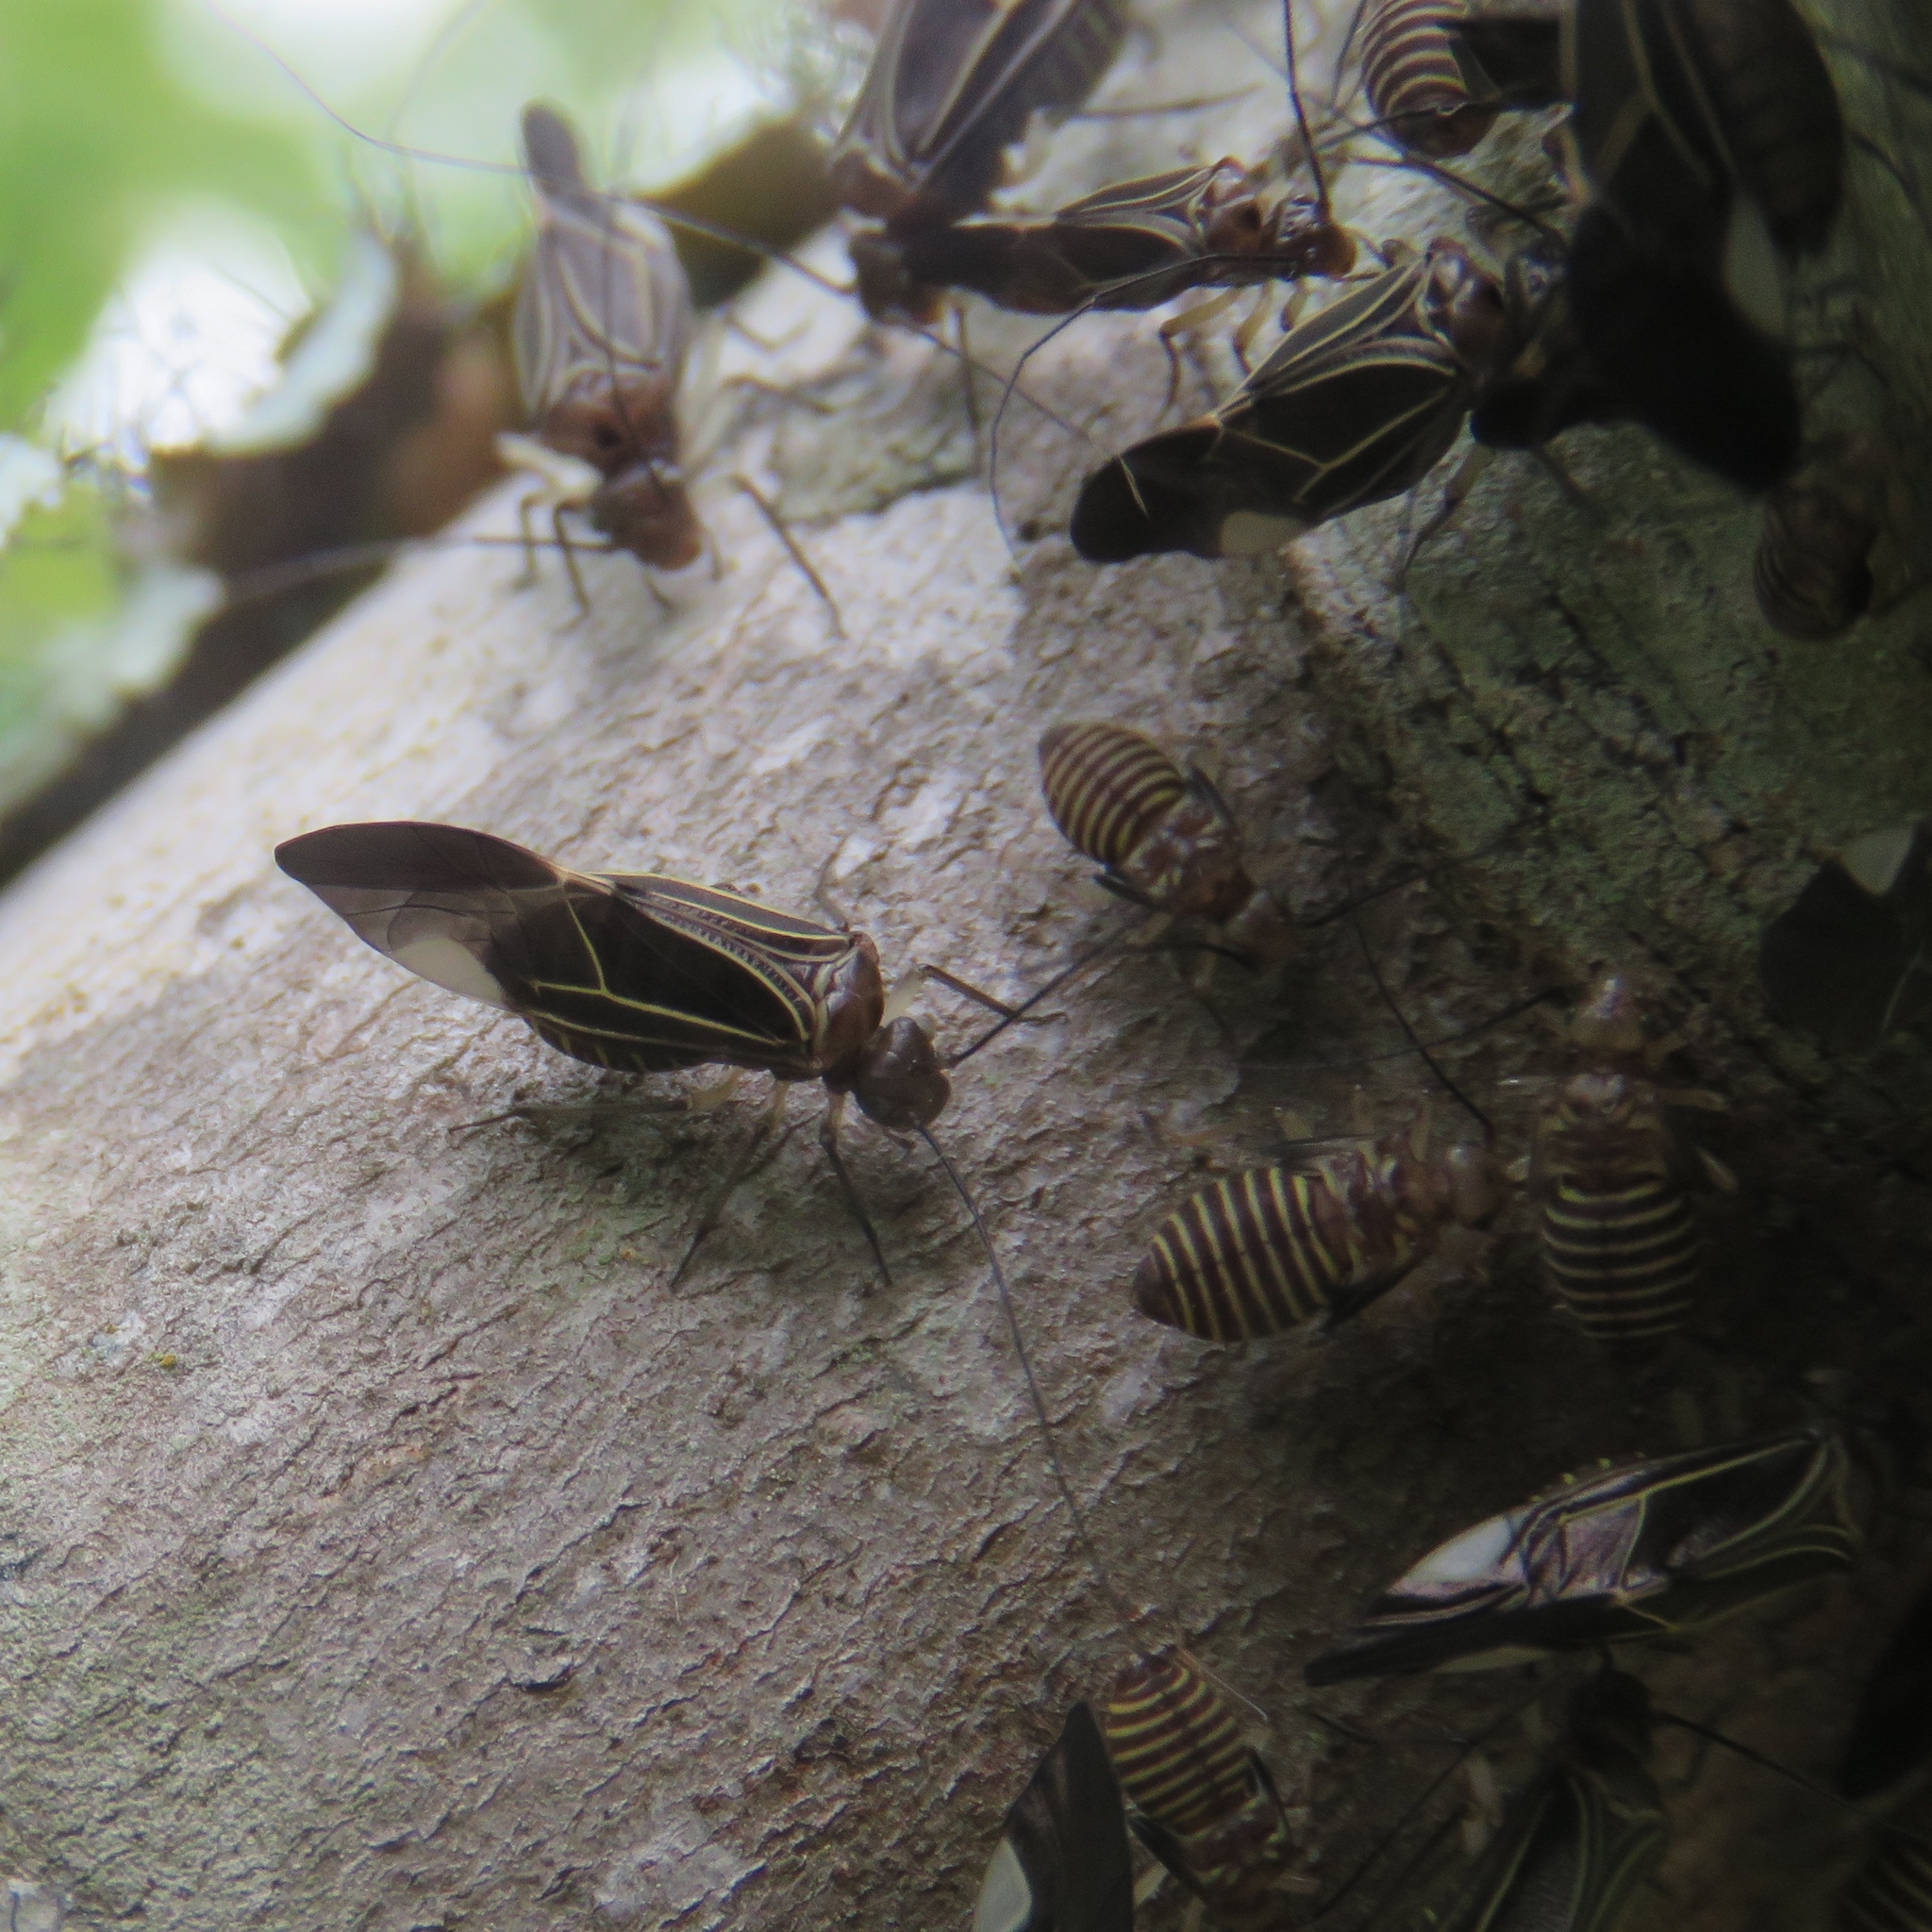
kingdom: Animalia
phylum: Arthropoda
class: Insecta
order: Psocodea
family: Psocidae
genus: Cerastipsocus
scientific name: Cerastipsocus venosus
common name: Tree cattle
